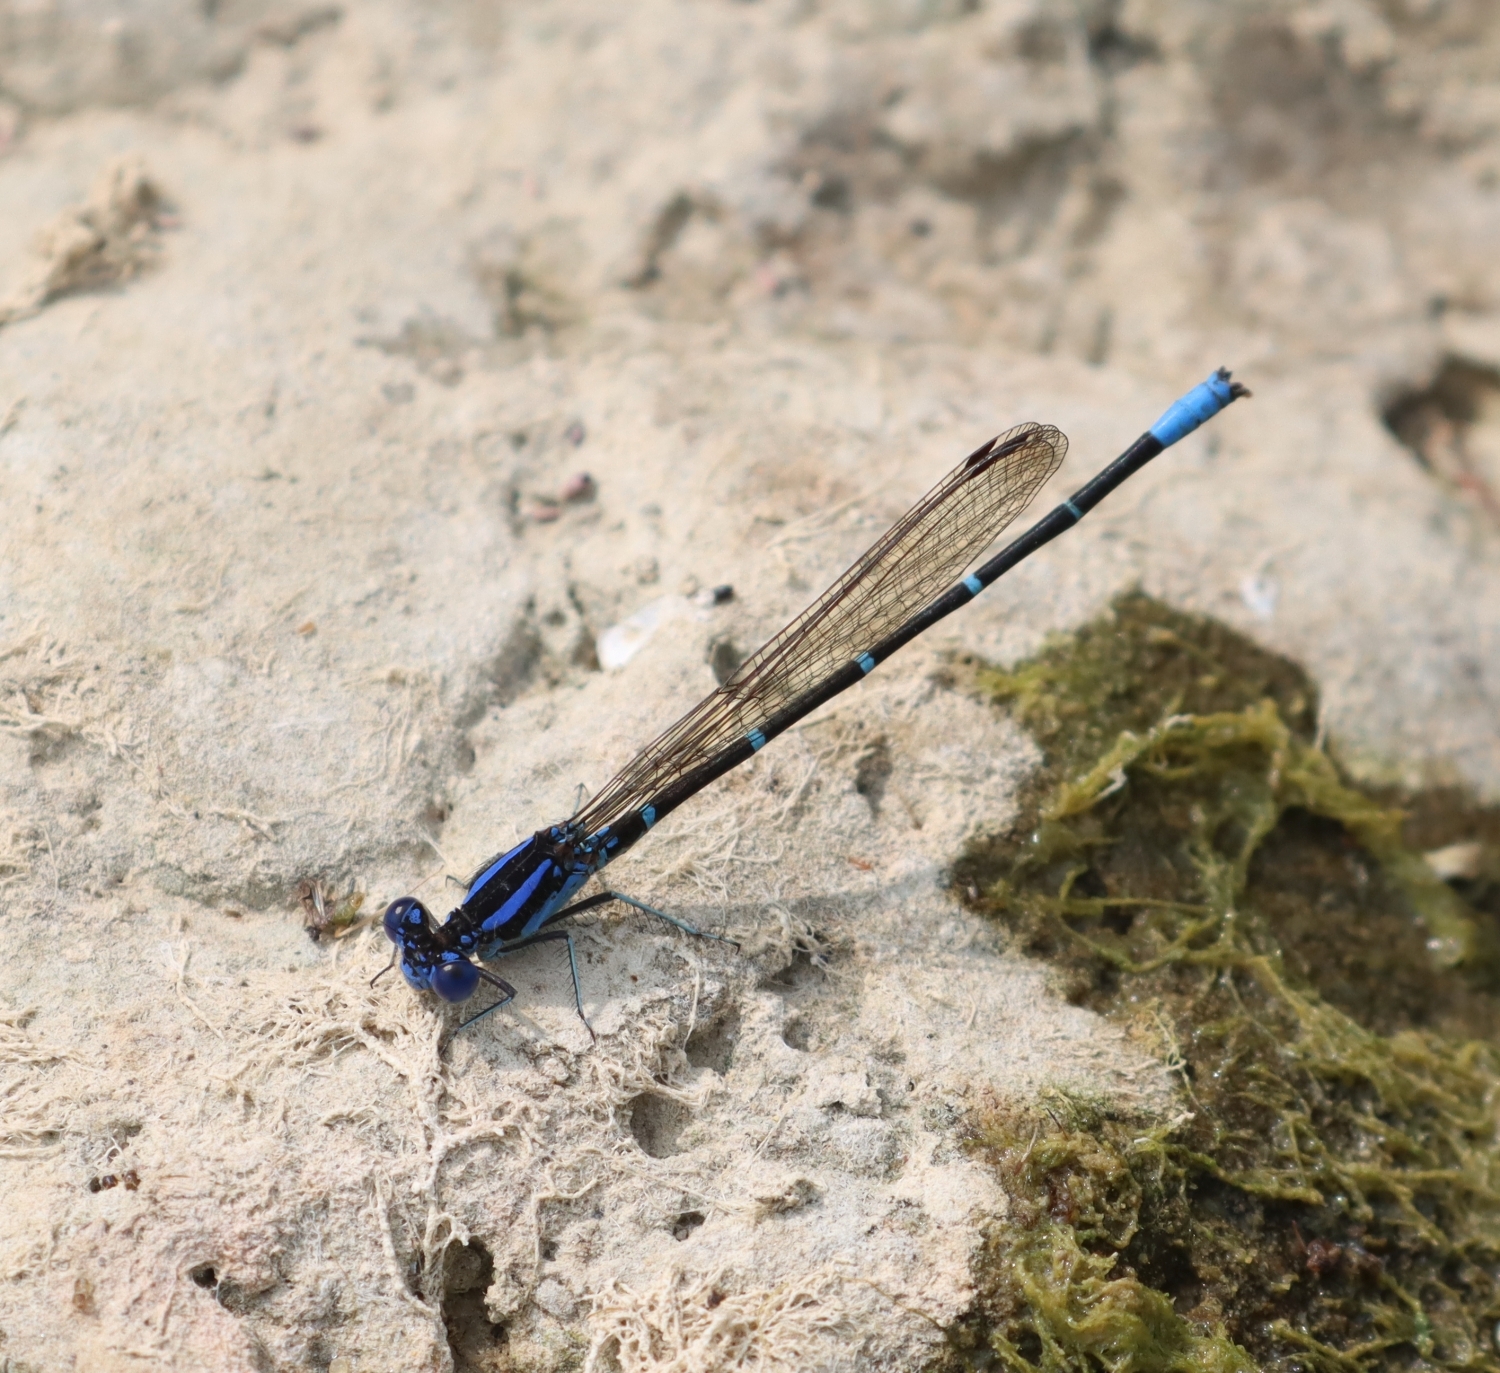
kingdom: Animalia
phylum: Arthropoda
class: Insecta
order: Odonata
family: Coenagrionidae
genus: Argia
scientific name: Argia sedula
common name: Blue-ringed dancer
